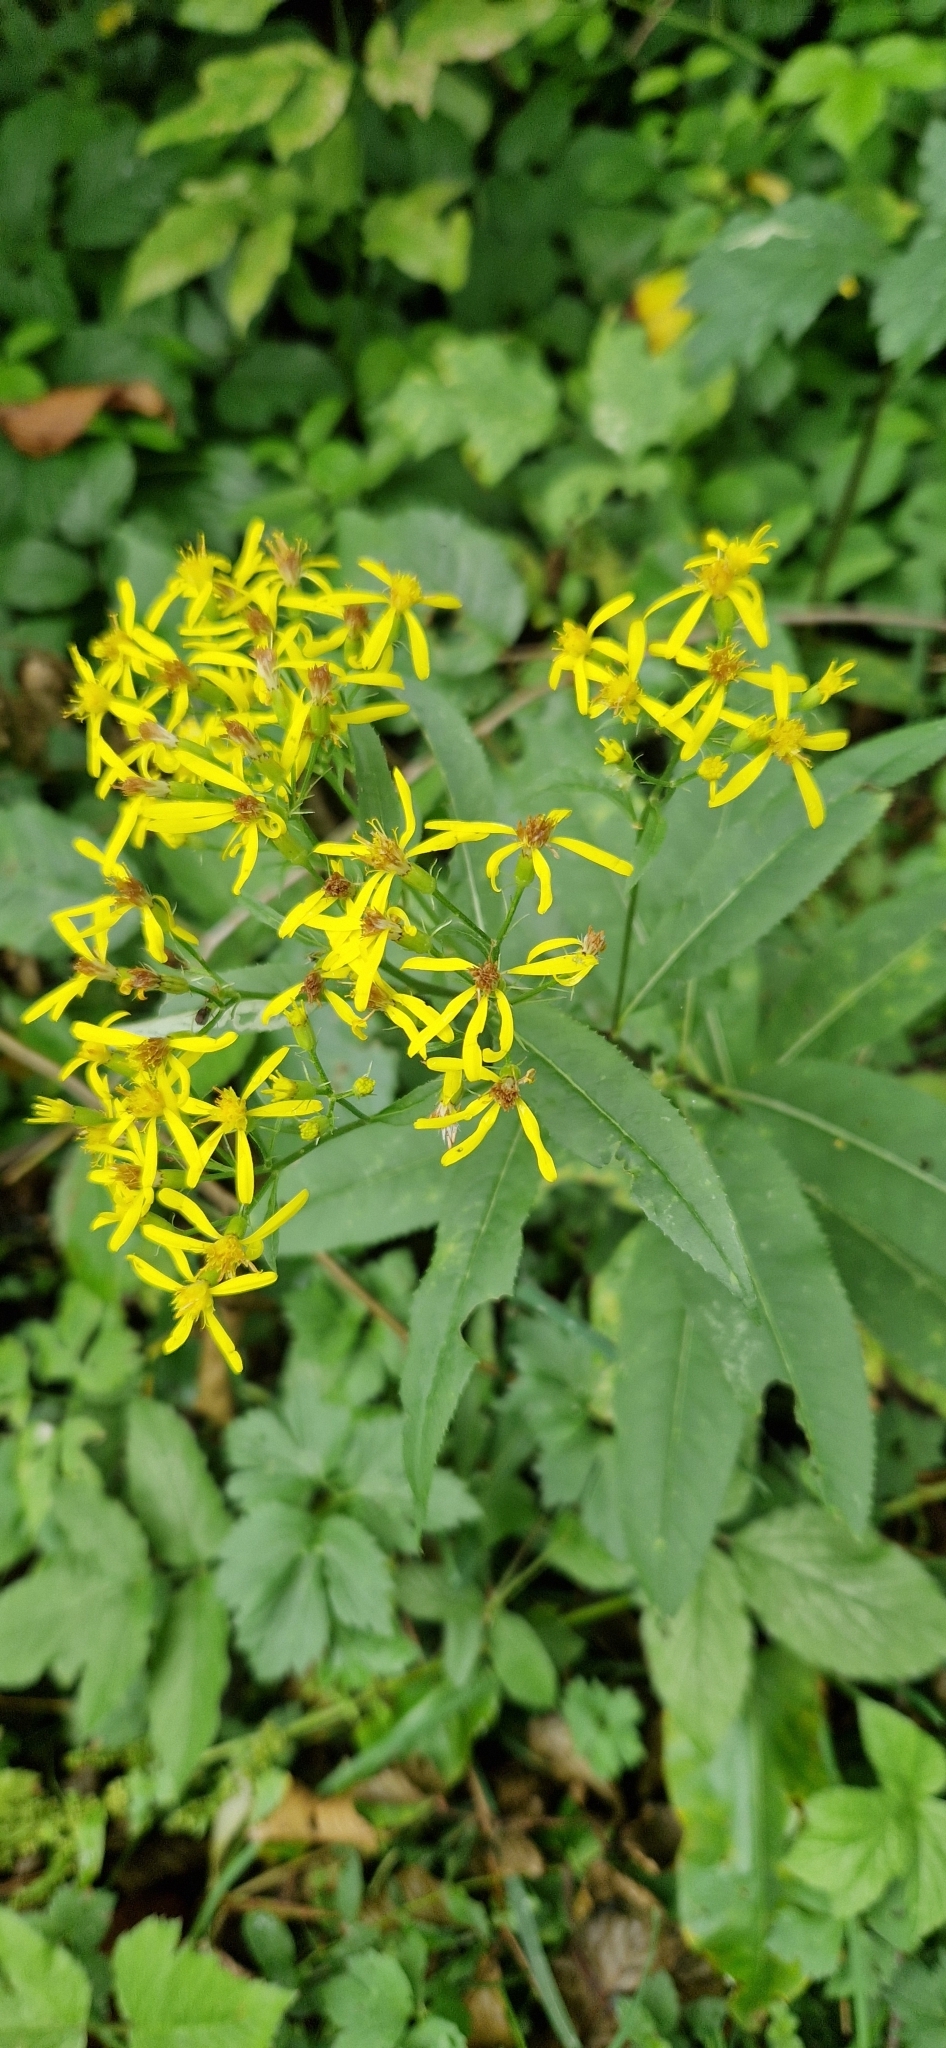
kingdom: Plantae
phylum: Tracheophyta
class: Magnoliopsida
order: Asterales
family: Asteraceae
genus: Senecio
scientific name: Senecio nemorensis
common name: Alpine ragwort
